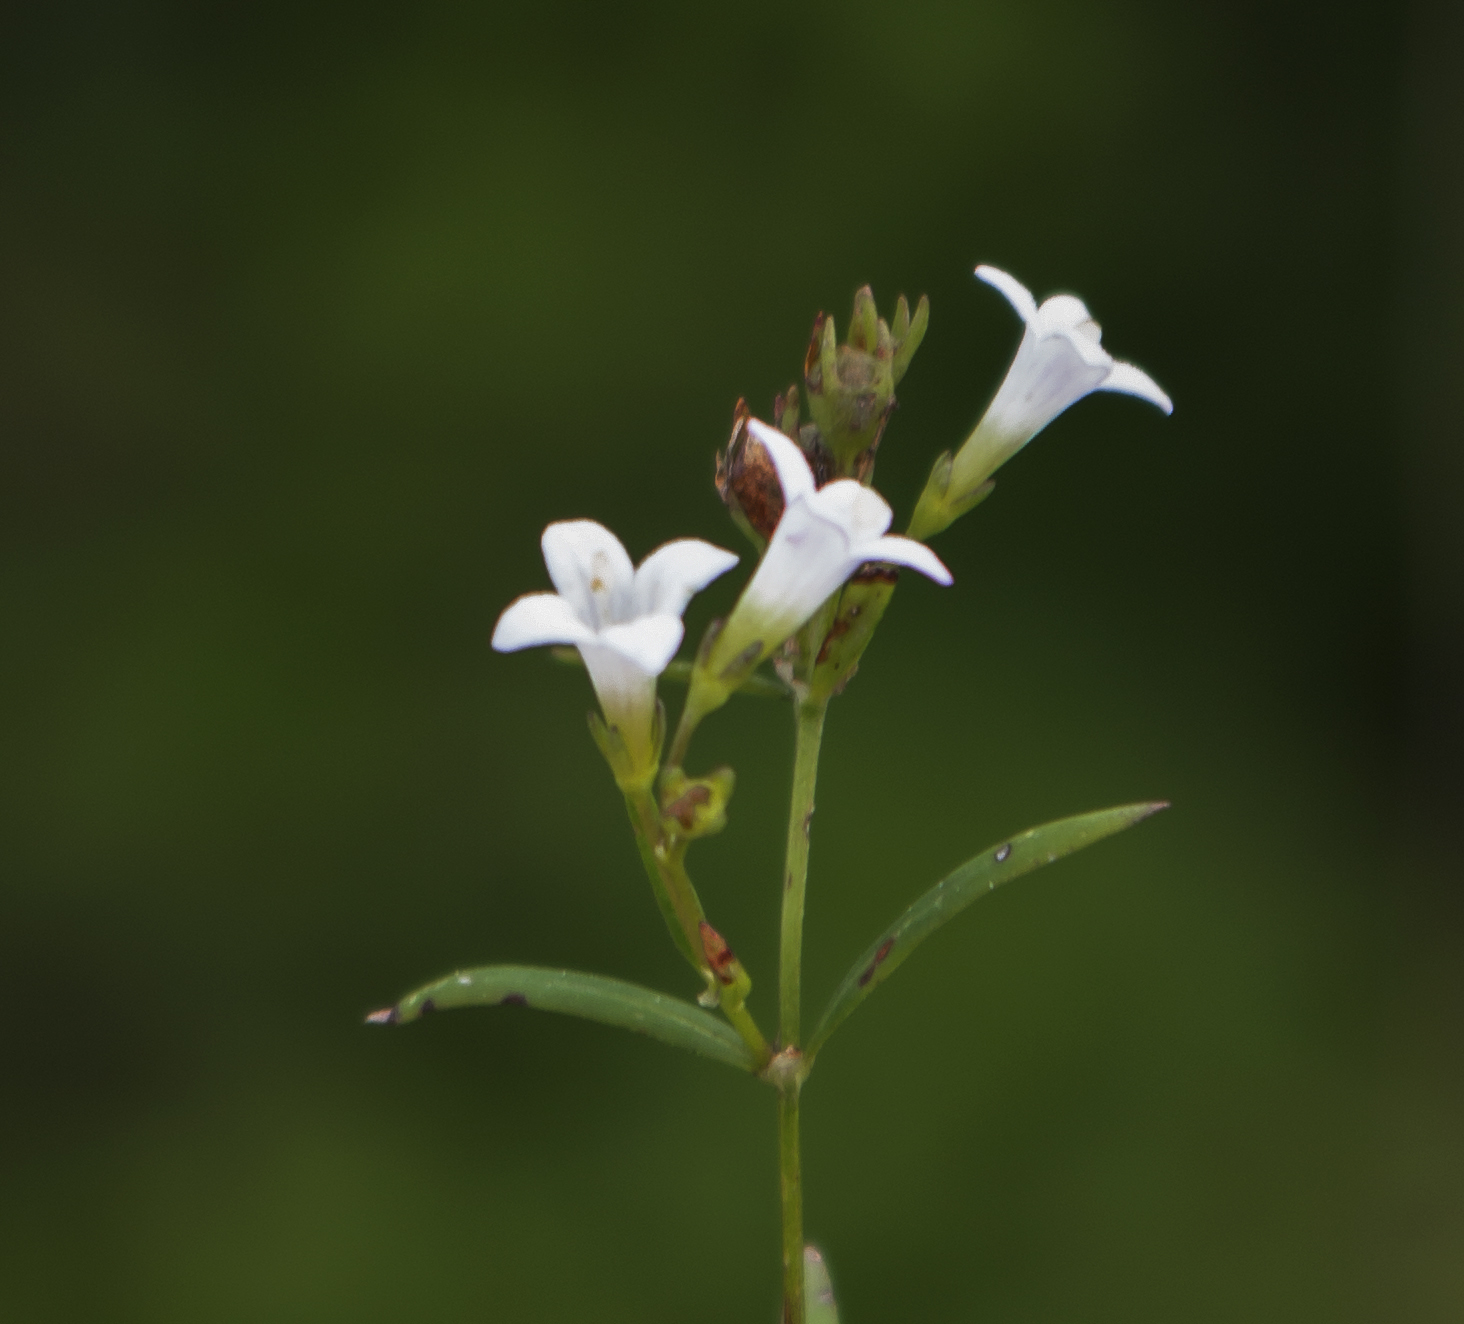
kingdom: Plantae
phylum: Tracheophyta
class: Magnoliopsida
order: Gentianales
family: Rubiaceae
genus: Houstonia
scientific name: Houstonia longifolia
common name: Long-leaved bluets
